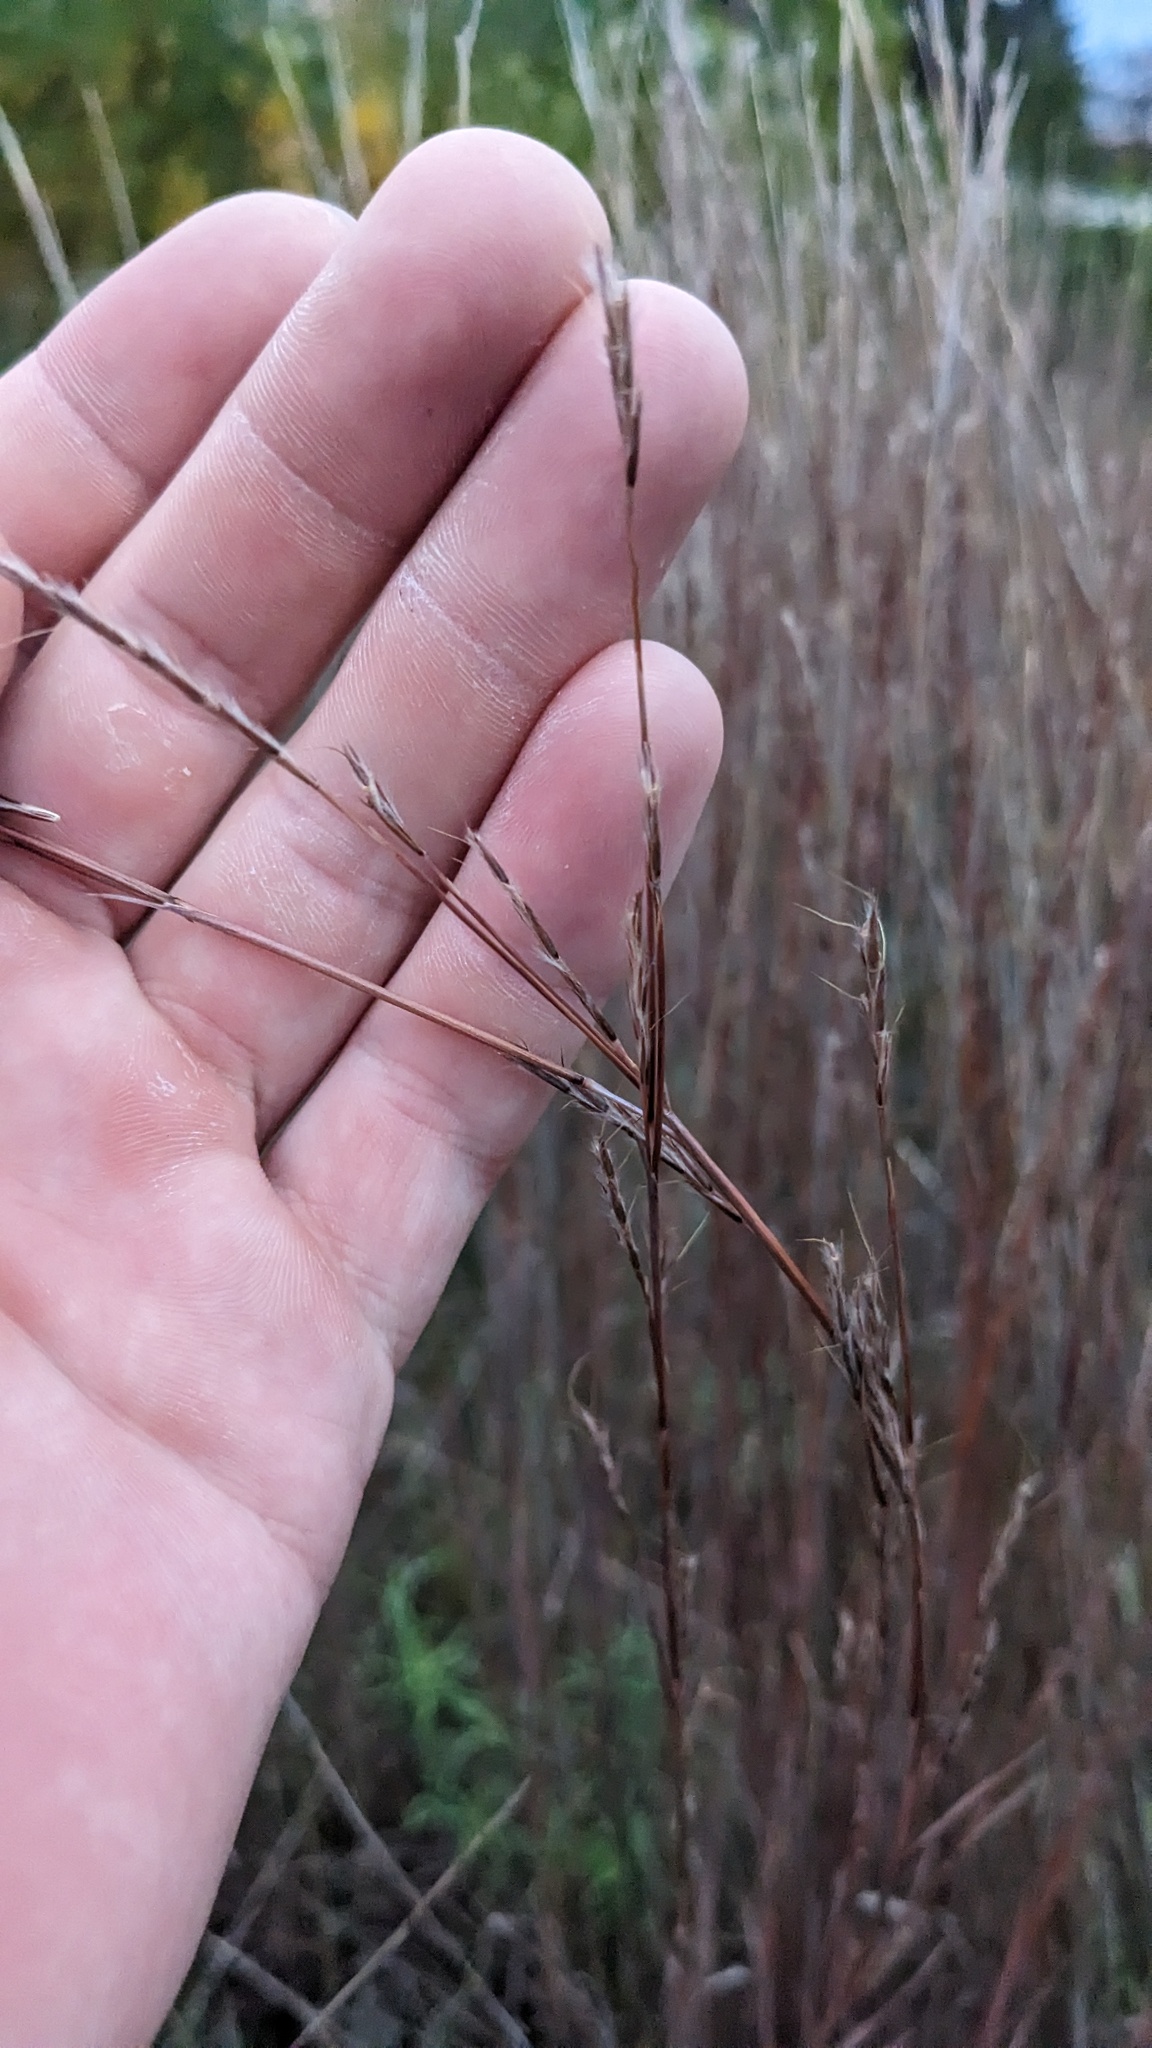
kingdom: Plantae
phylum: Tracheophyta
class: Liliopsida
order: Poales
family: Poaceae
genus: Schizachyrium
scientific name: Schizachyrium scoparium
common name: Little bluestem
